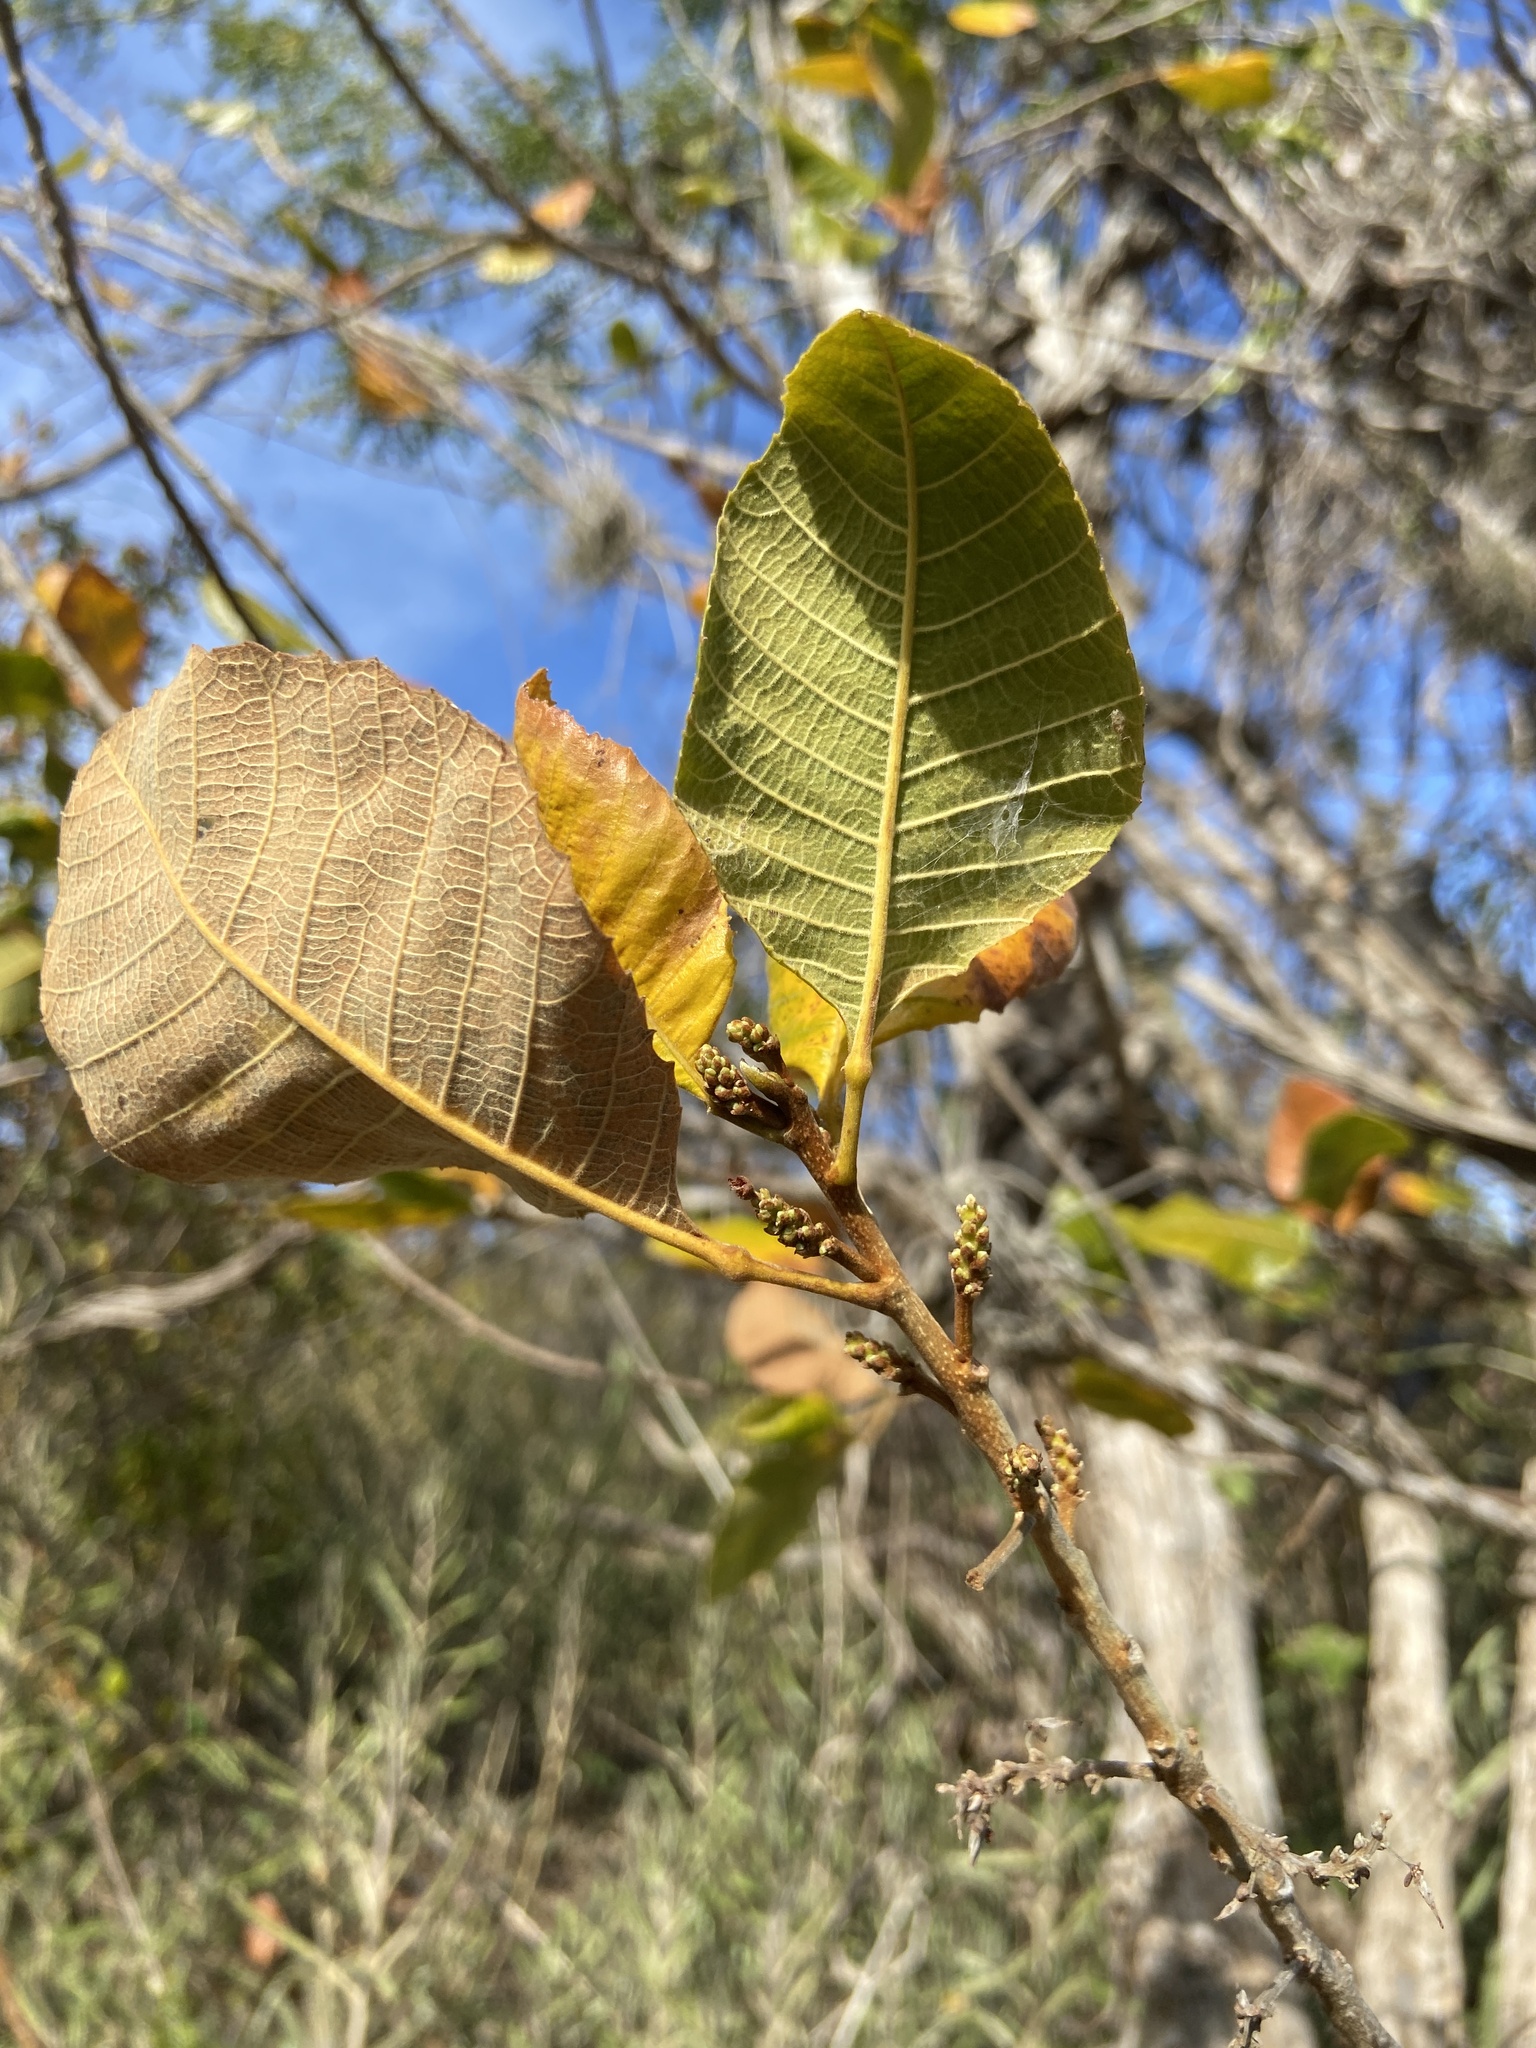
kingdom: Plantae
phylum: Tracheophyta
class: Magnoliopsida
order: Sapindales
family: Sapindaceae
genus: Thouinia
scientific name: Thouinia striata
